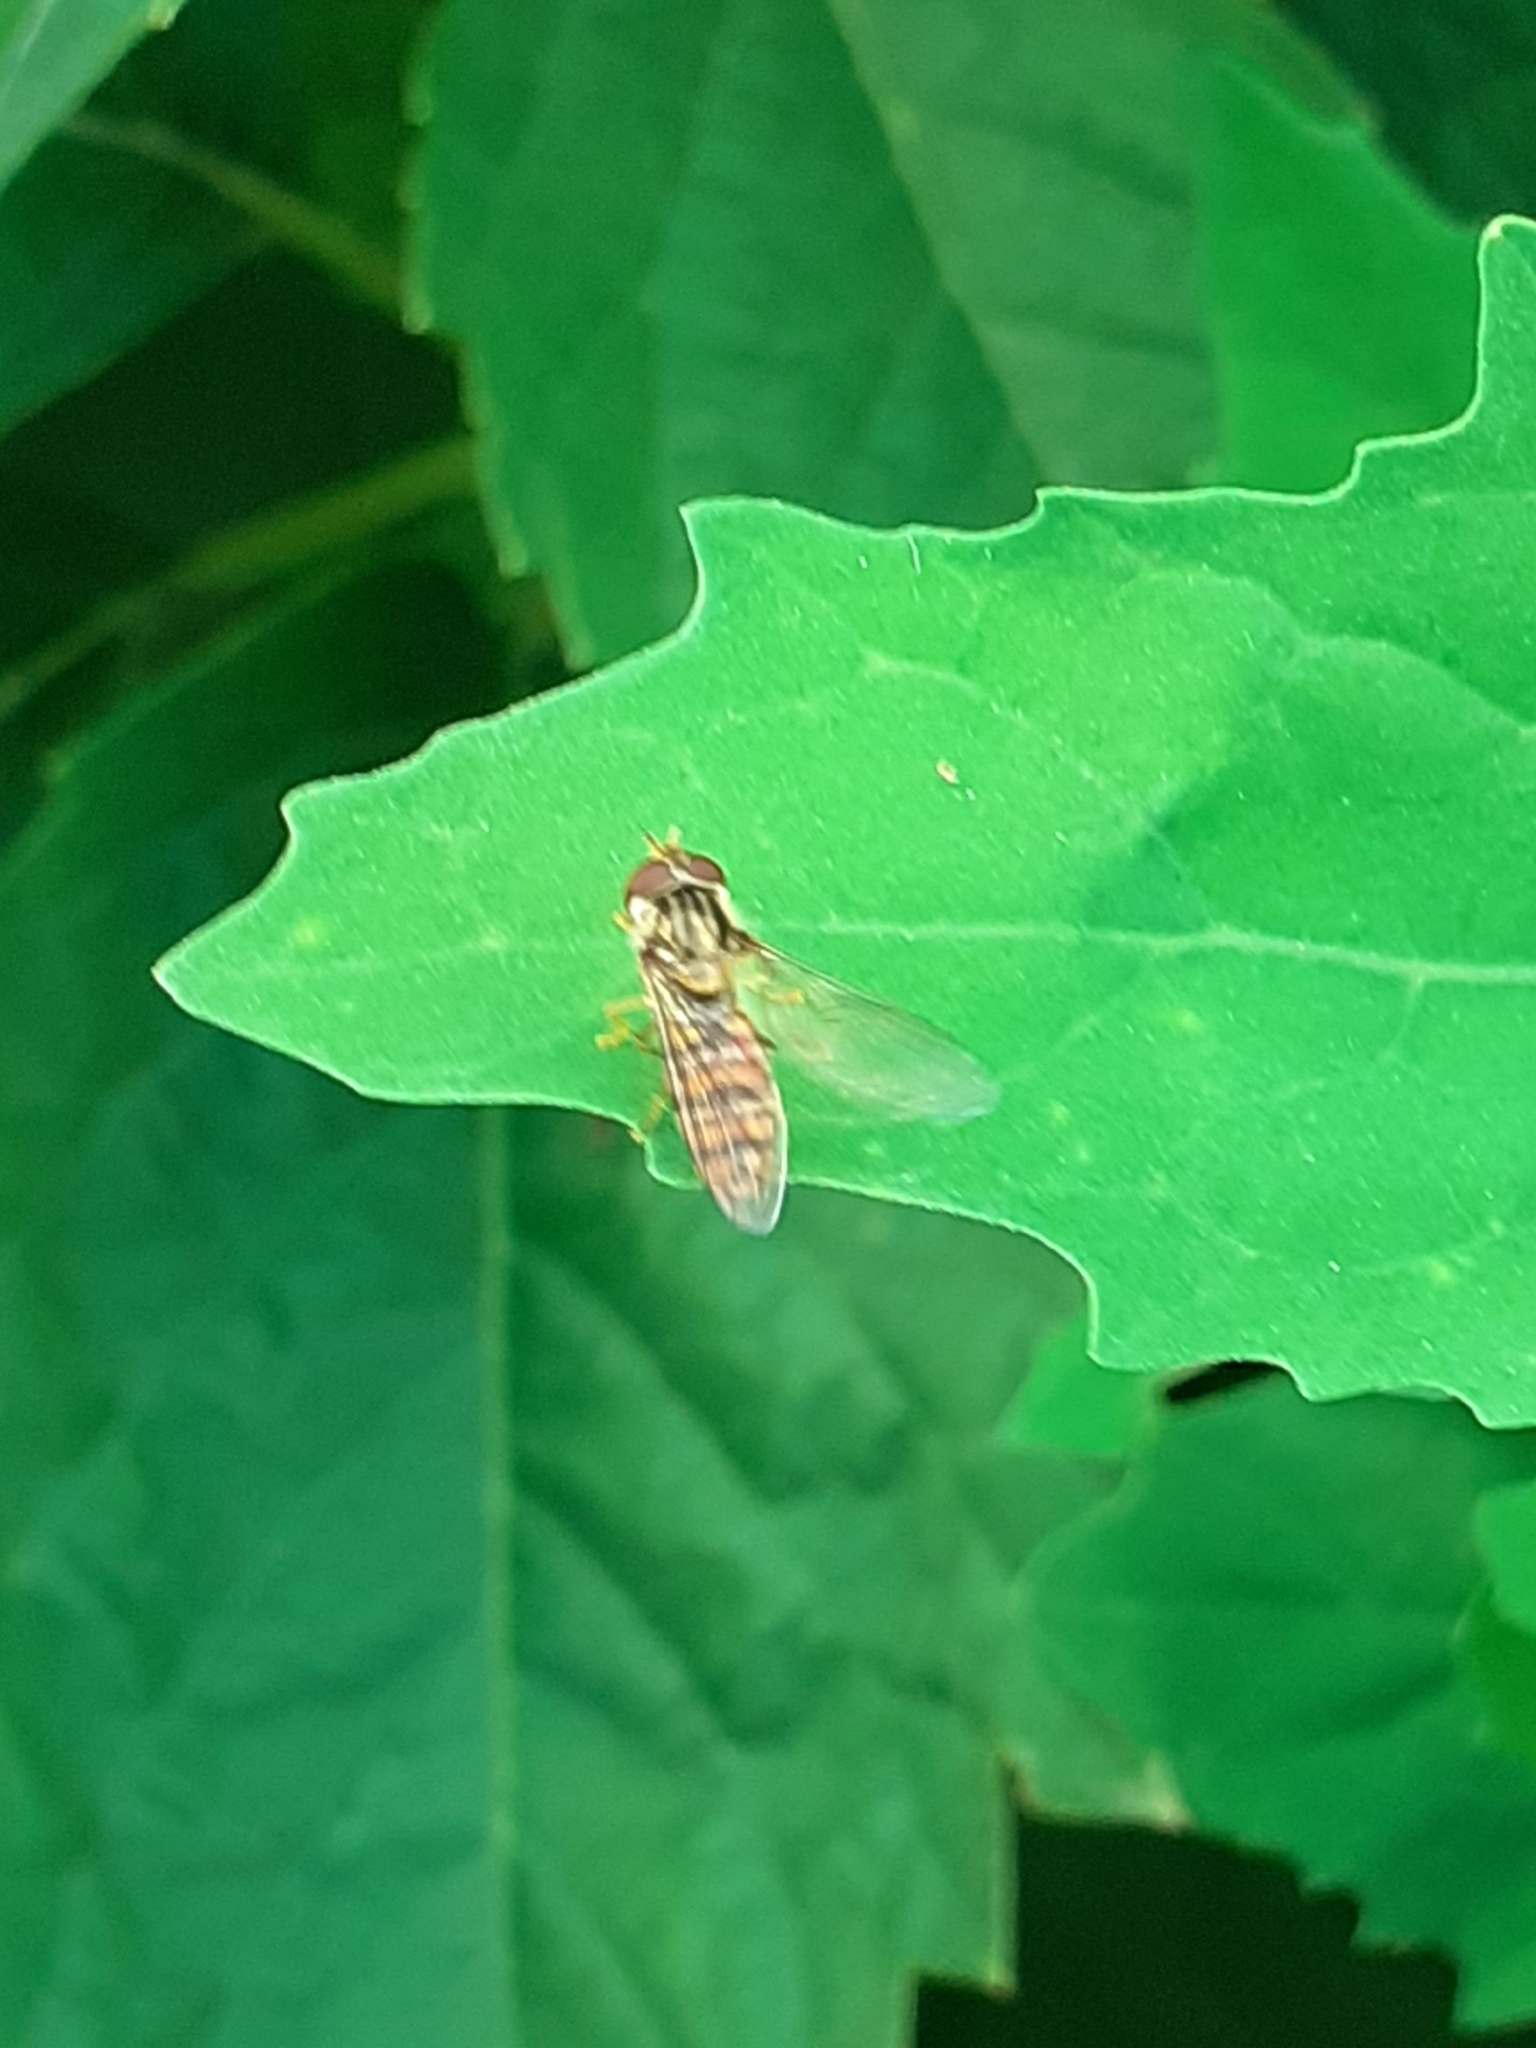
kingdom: Animalia
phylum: Arthropoda
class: Insecta
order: Diptera
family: Syrphidae
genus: Episyrphus
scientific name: Episyrphus balteatus
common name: Marmalade hoverfly
